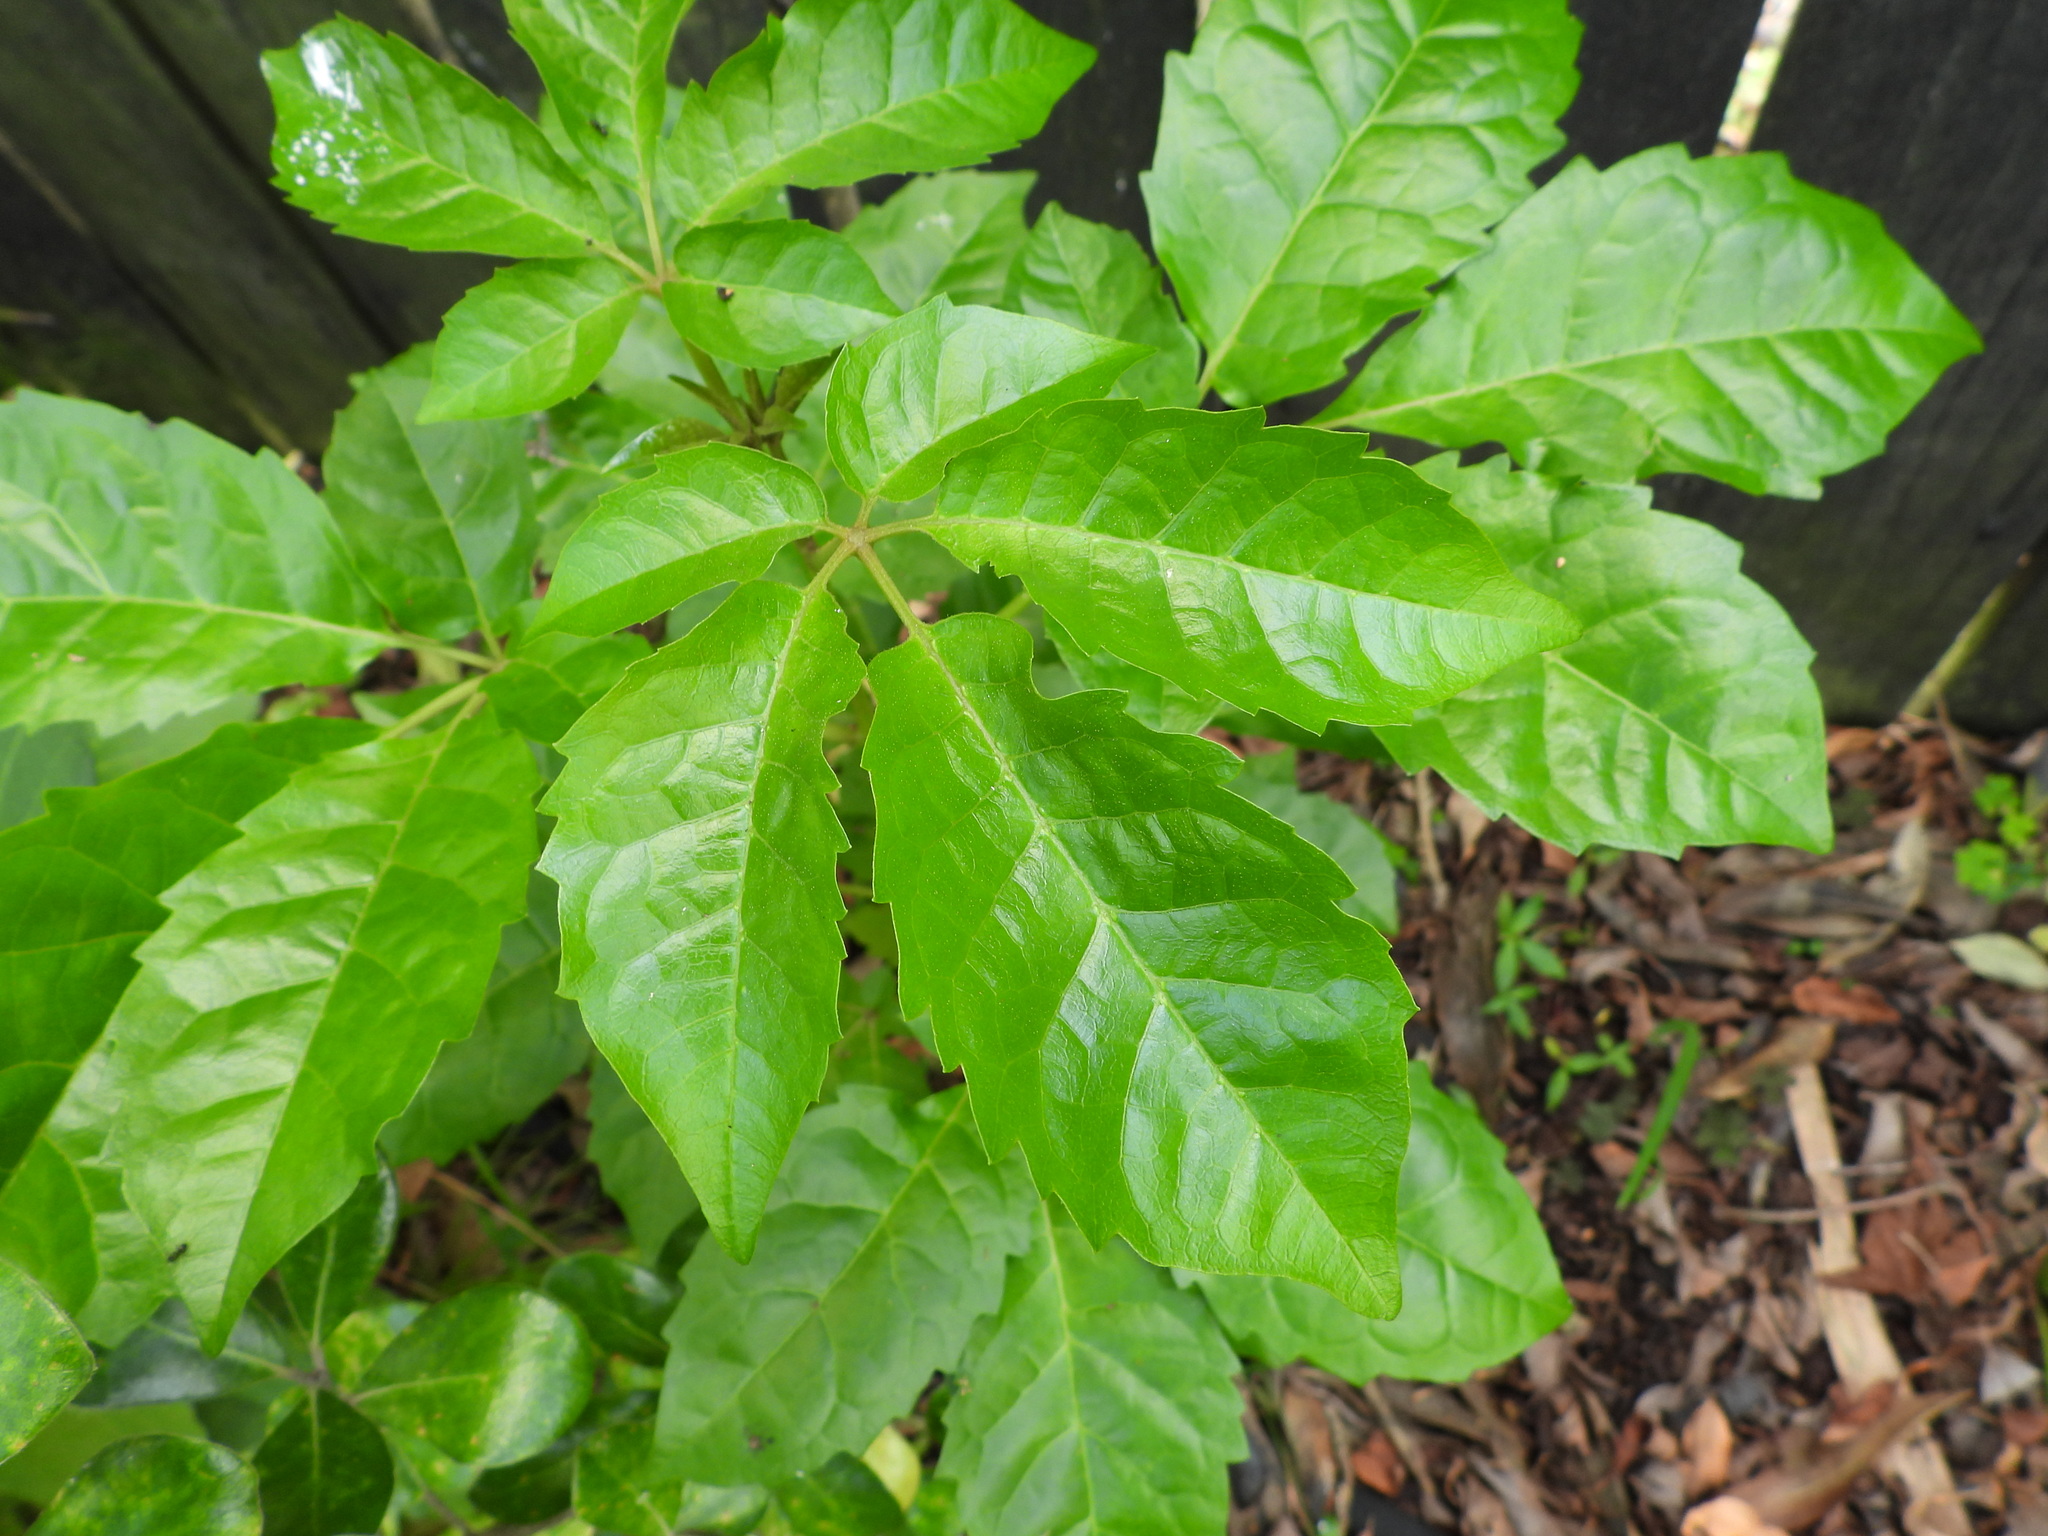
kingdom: Plantae
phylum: Tracheophyta
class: Magnoliopsida
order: Lamiales
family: Lamiaceae
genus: Vitex
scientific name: Vitex lucens
